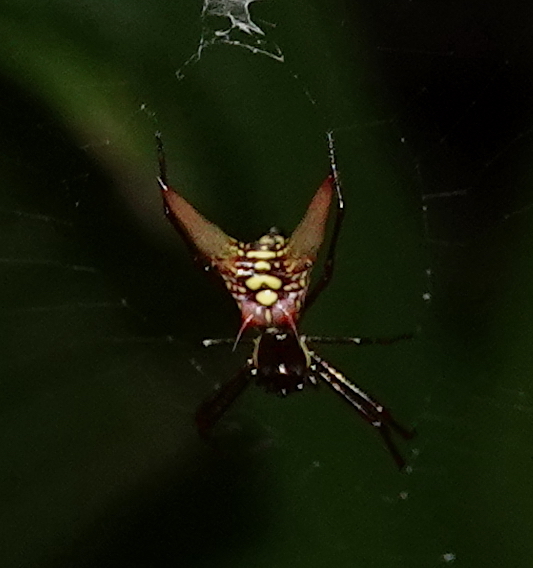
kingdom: Animalia
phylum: Arthropoda
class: Arachnida
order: Araneae
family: Araneidae
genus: Micrathena
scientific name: Micrathena sexspinosa
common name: Orb weavers
